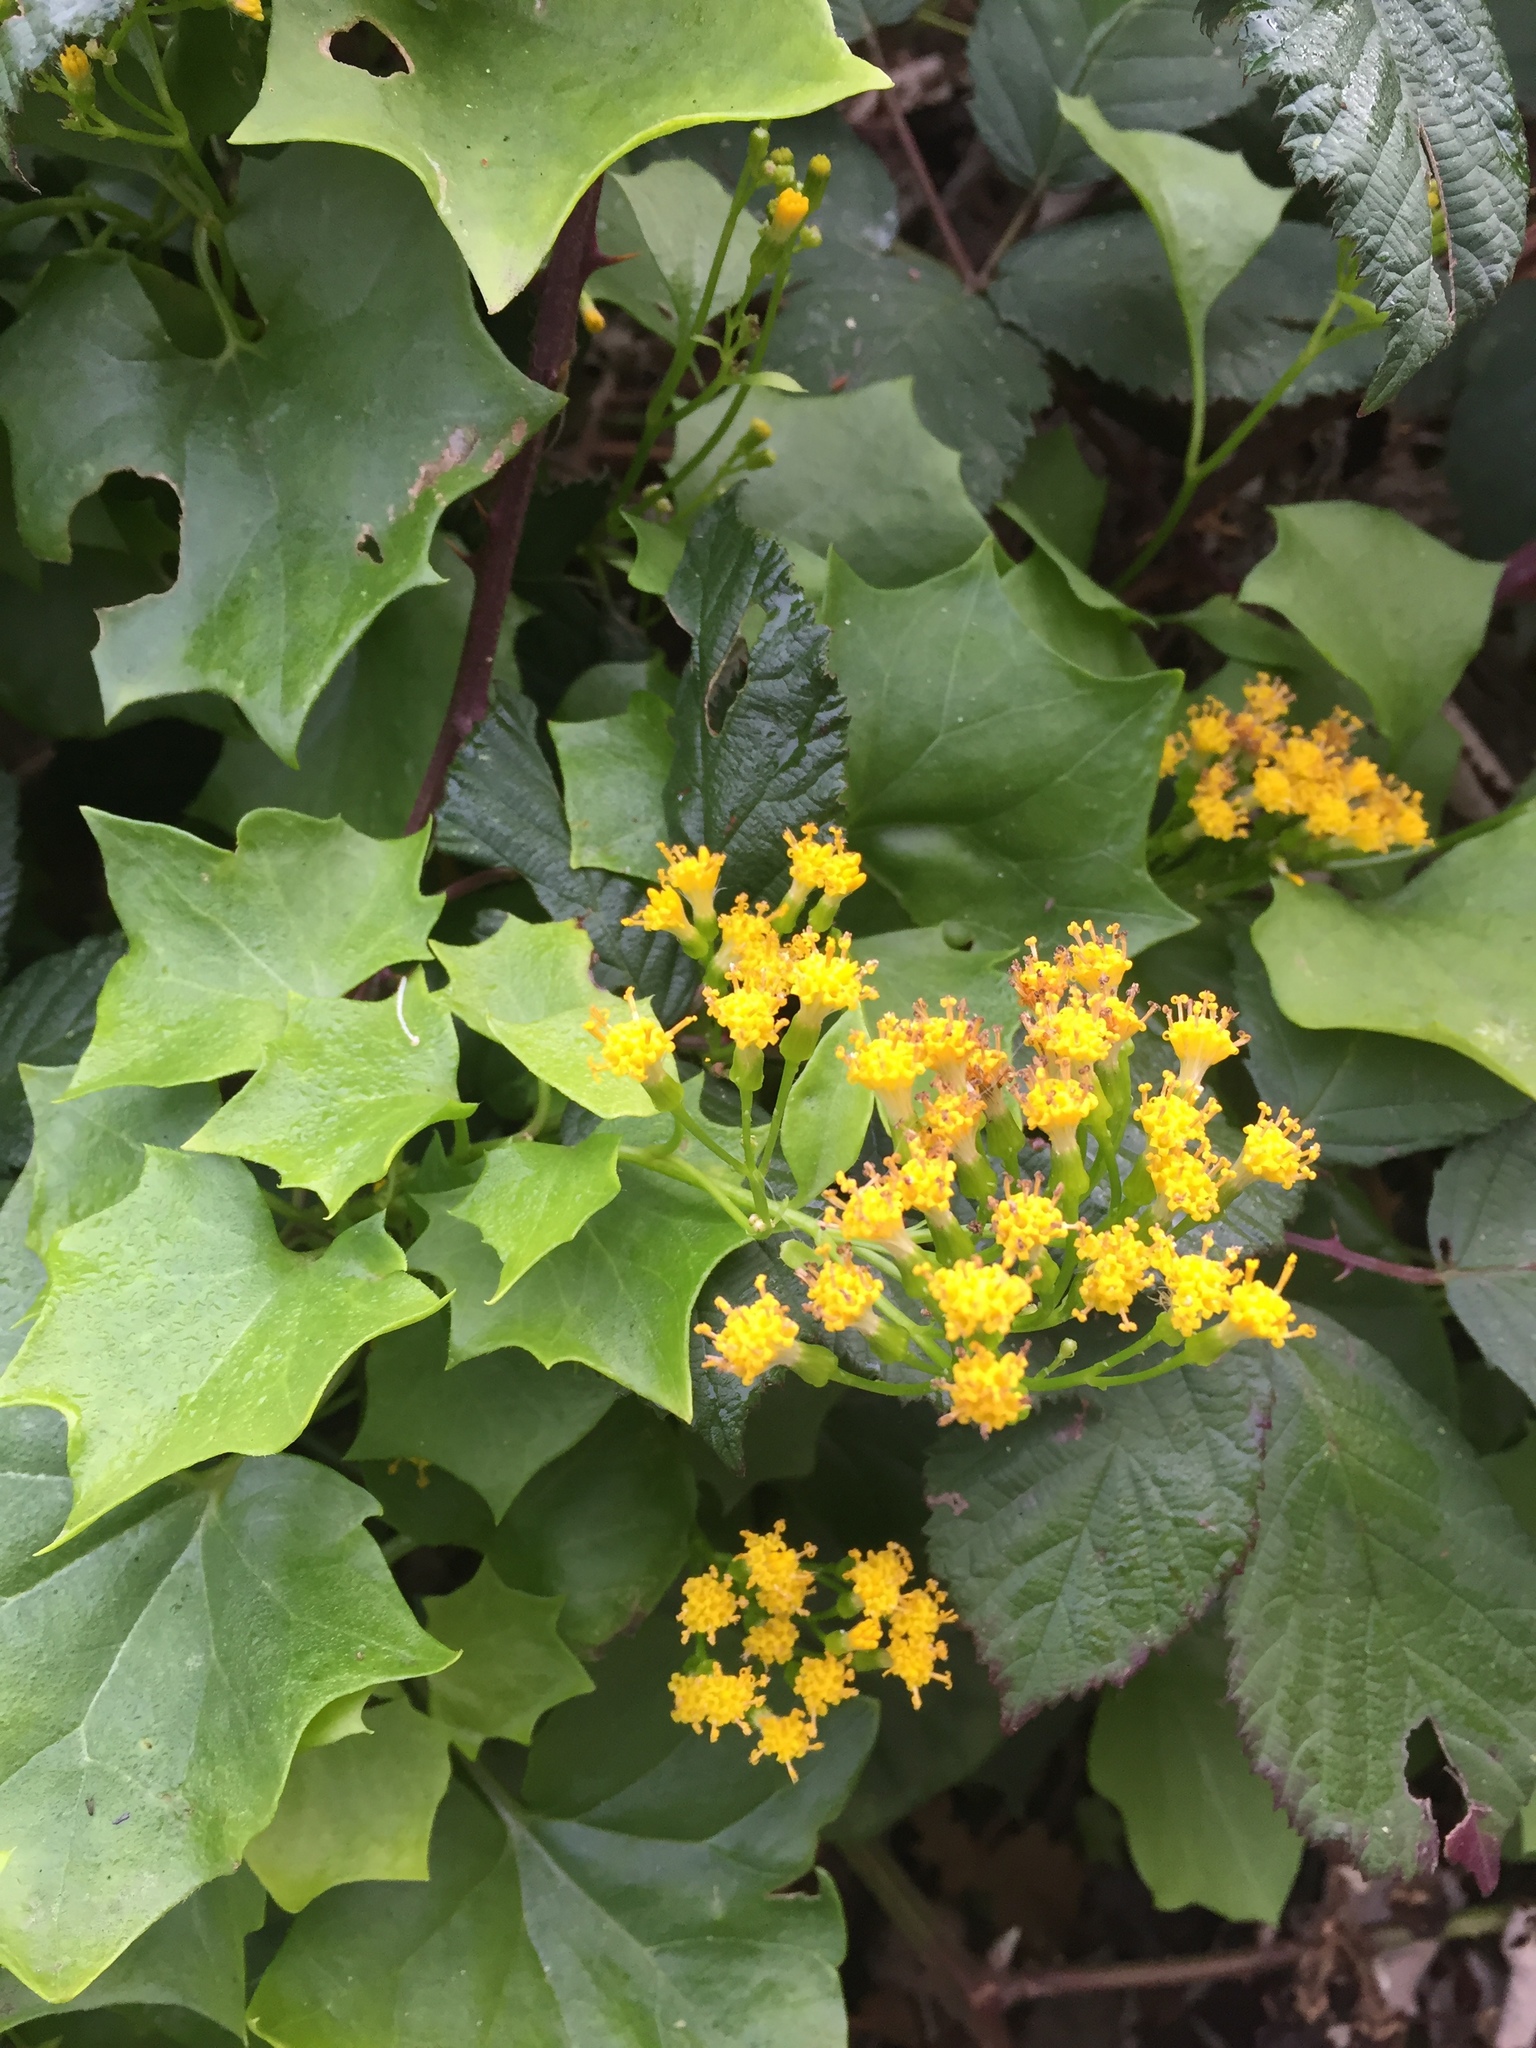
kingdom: Plantae
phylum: Tracheophyta
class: Magnoliopsida
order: Asterales
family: Asteraceae
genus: Delairea
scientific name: Delairea odorata
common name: Cape-ivy
